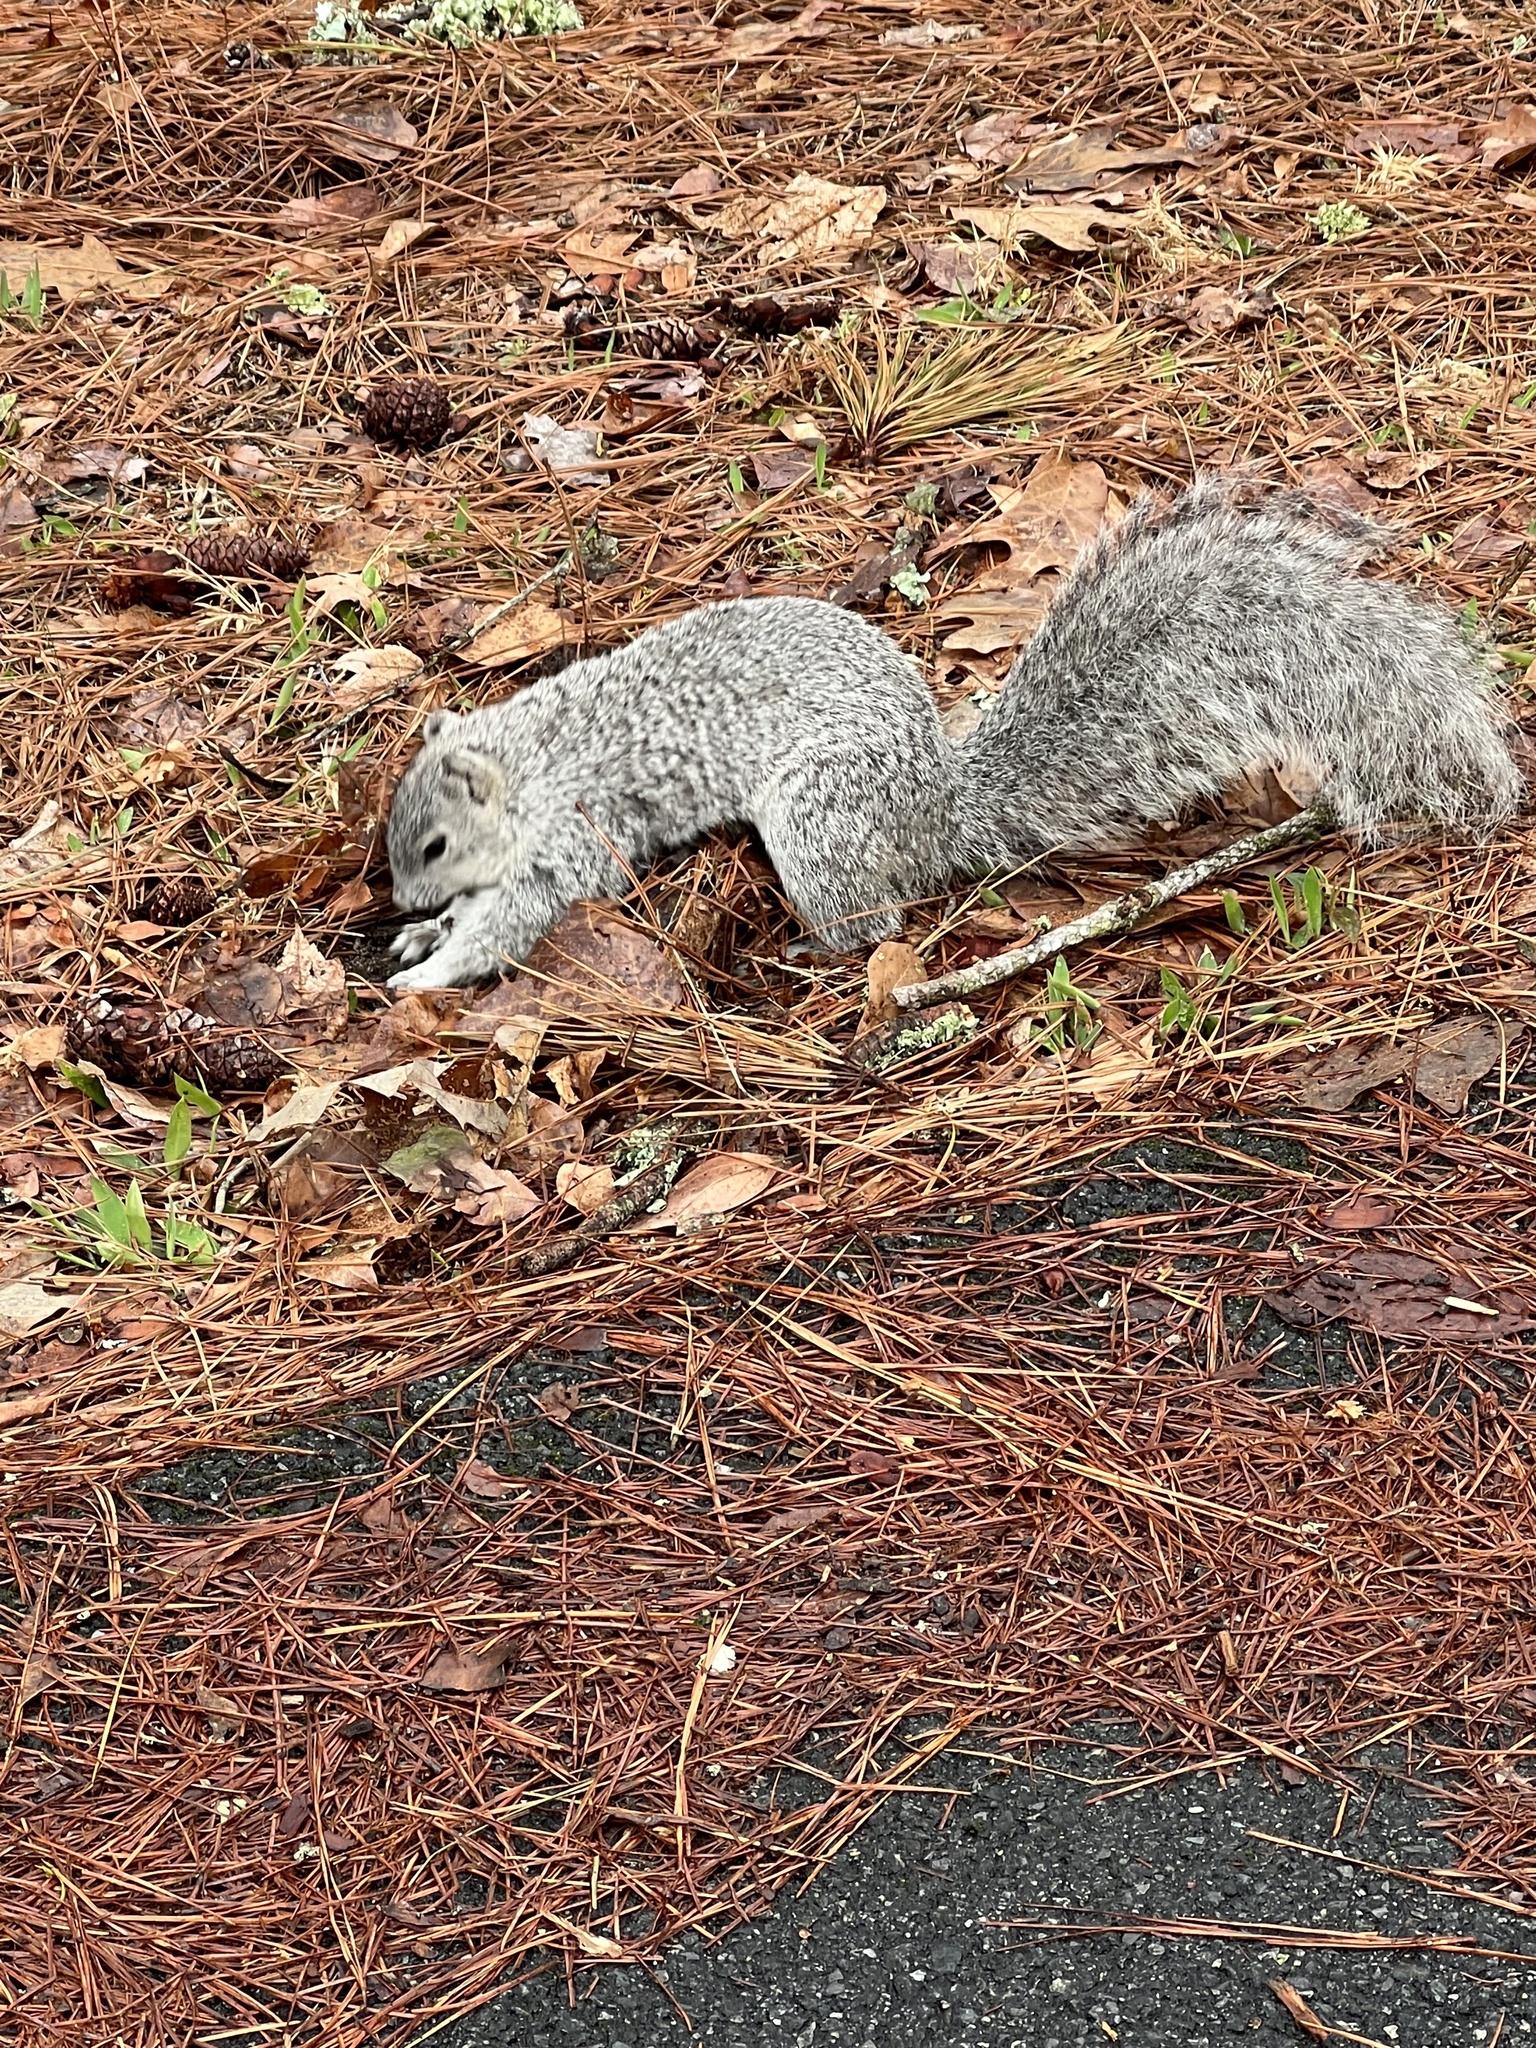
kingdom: Animalia
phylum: Chordata
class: Mammalia
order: Rodentia
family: Sciuridae
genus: Sciurus
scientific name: Sciurus niger
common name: Fox squirrel
